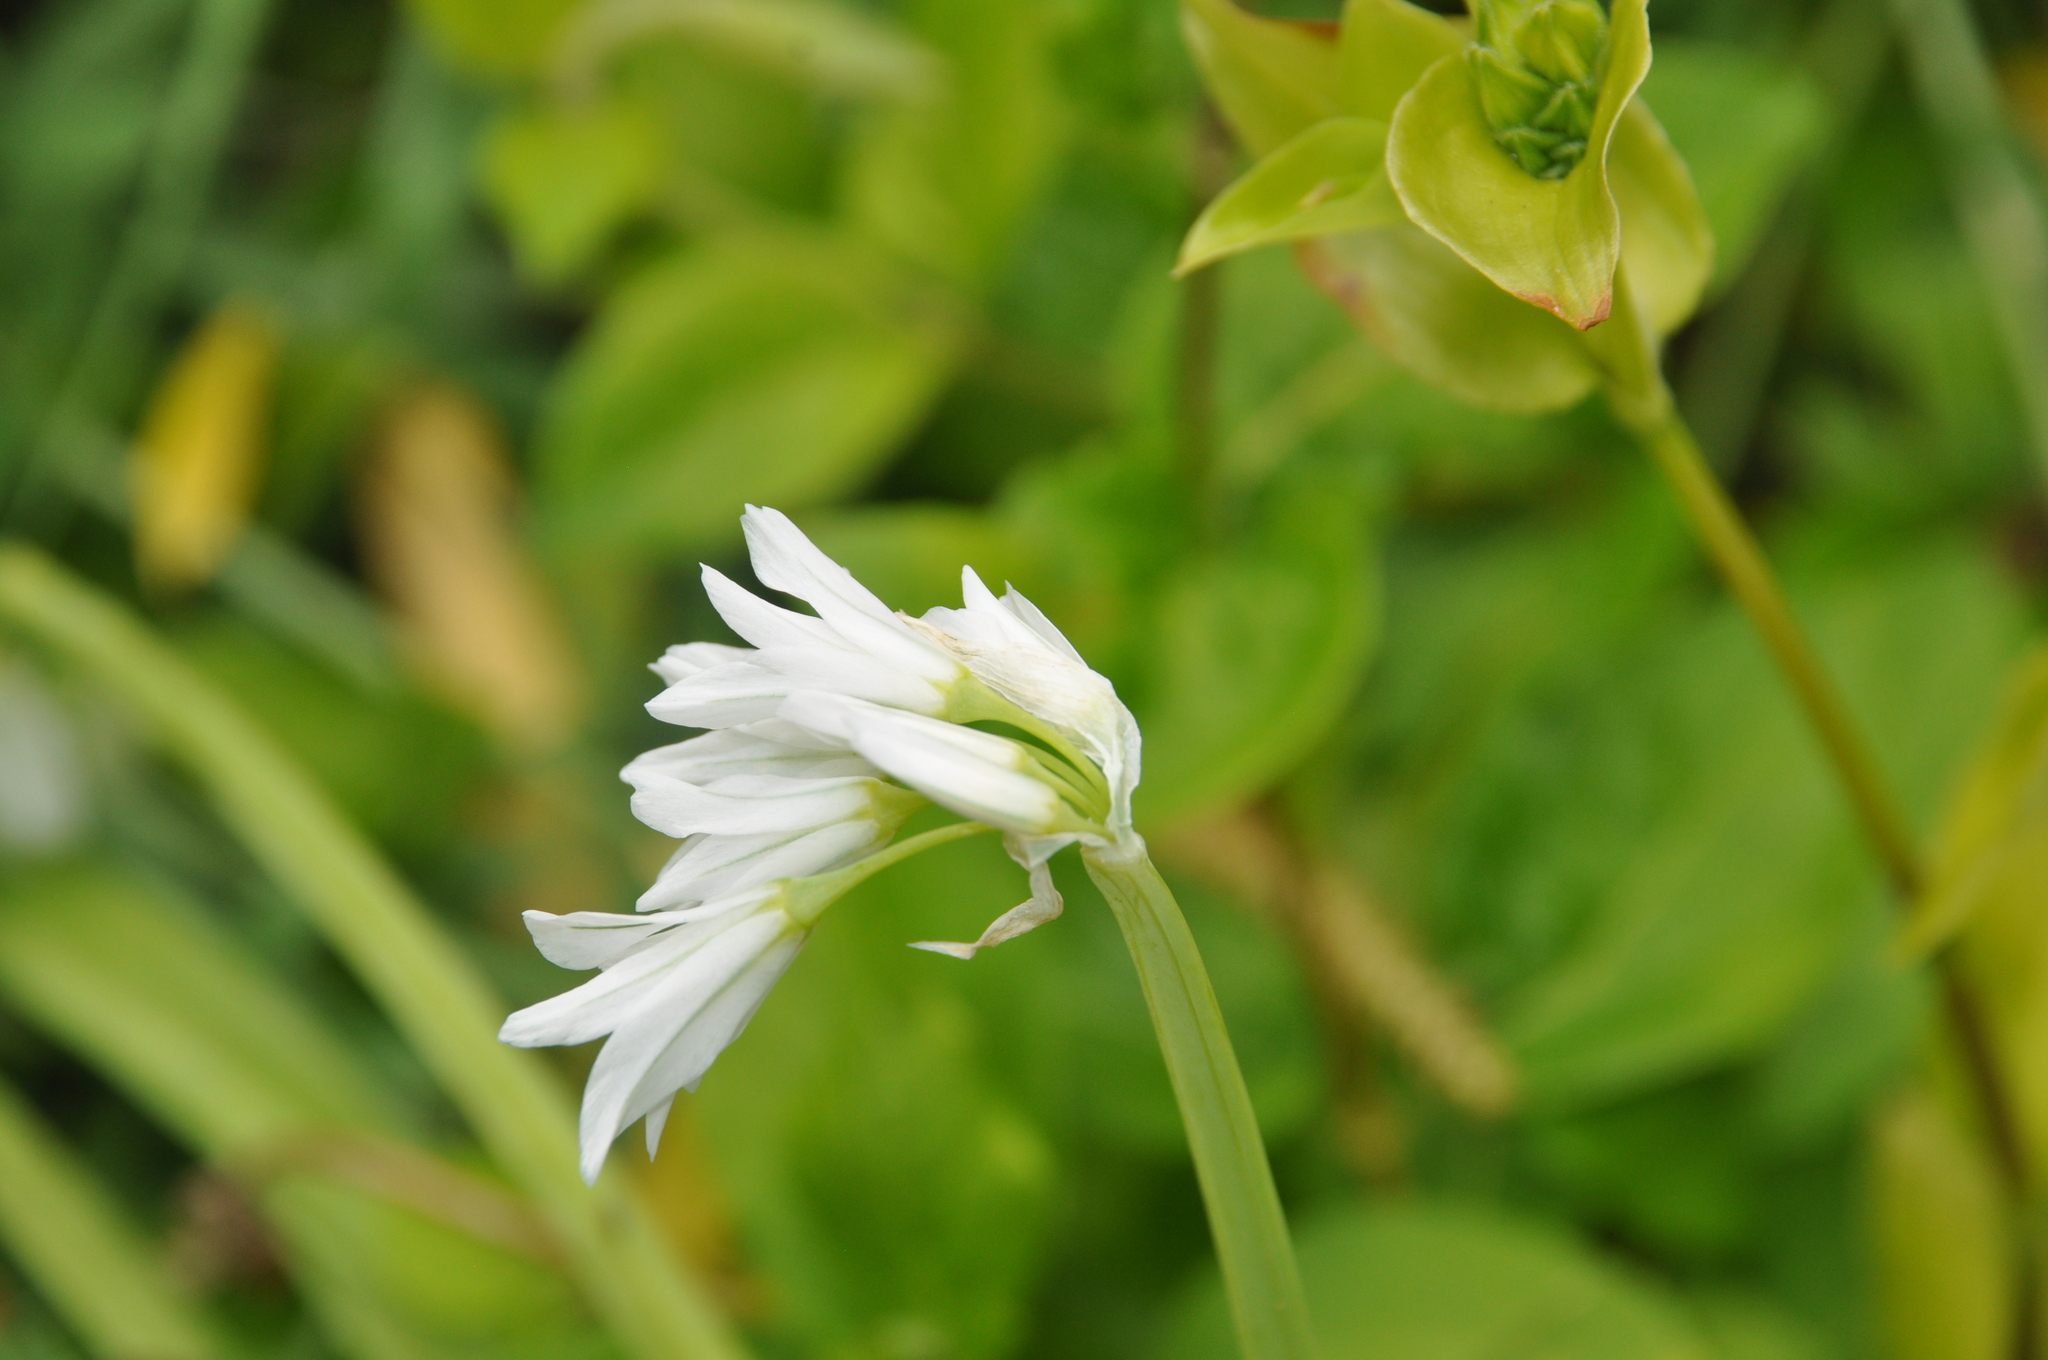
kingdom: Plantae
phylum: Tracheophyta
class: Liliopsida
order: Asparagales
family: Amaryllidaceae
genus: Allium
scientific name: Allium triquetrum
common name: Three-cornered garlic
